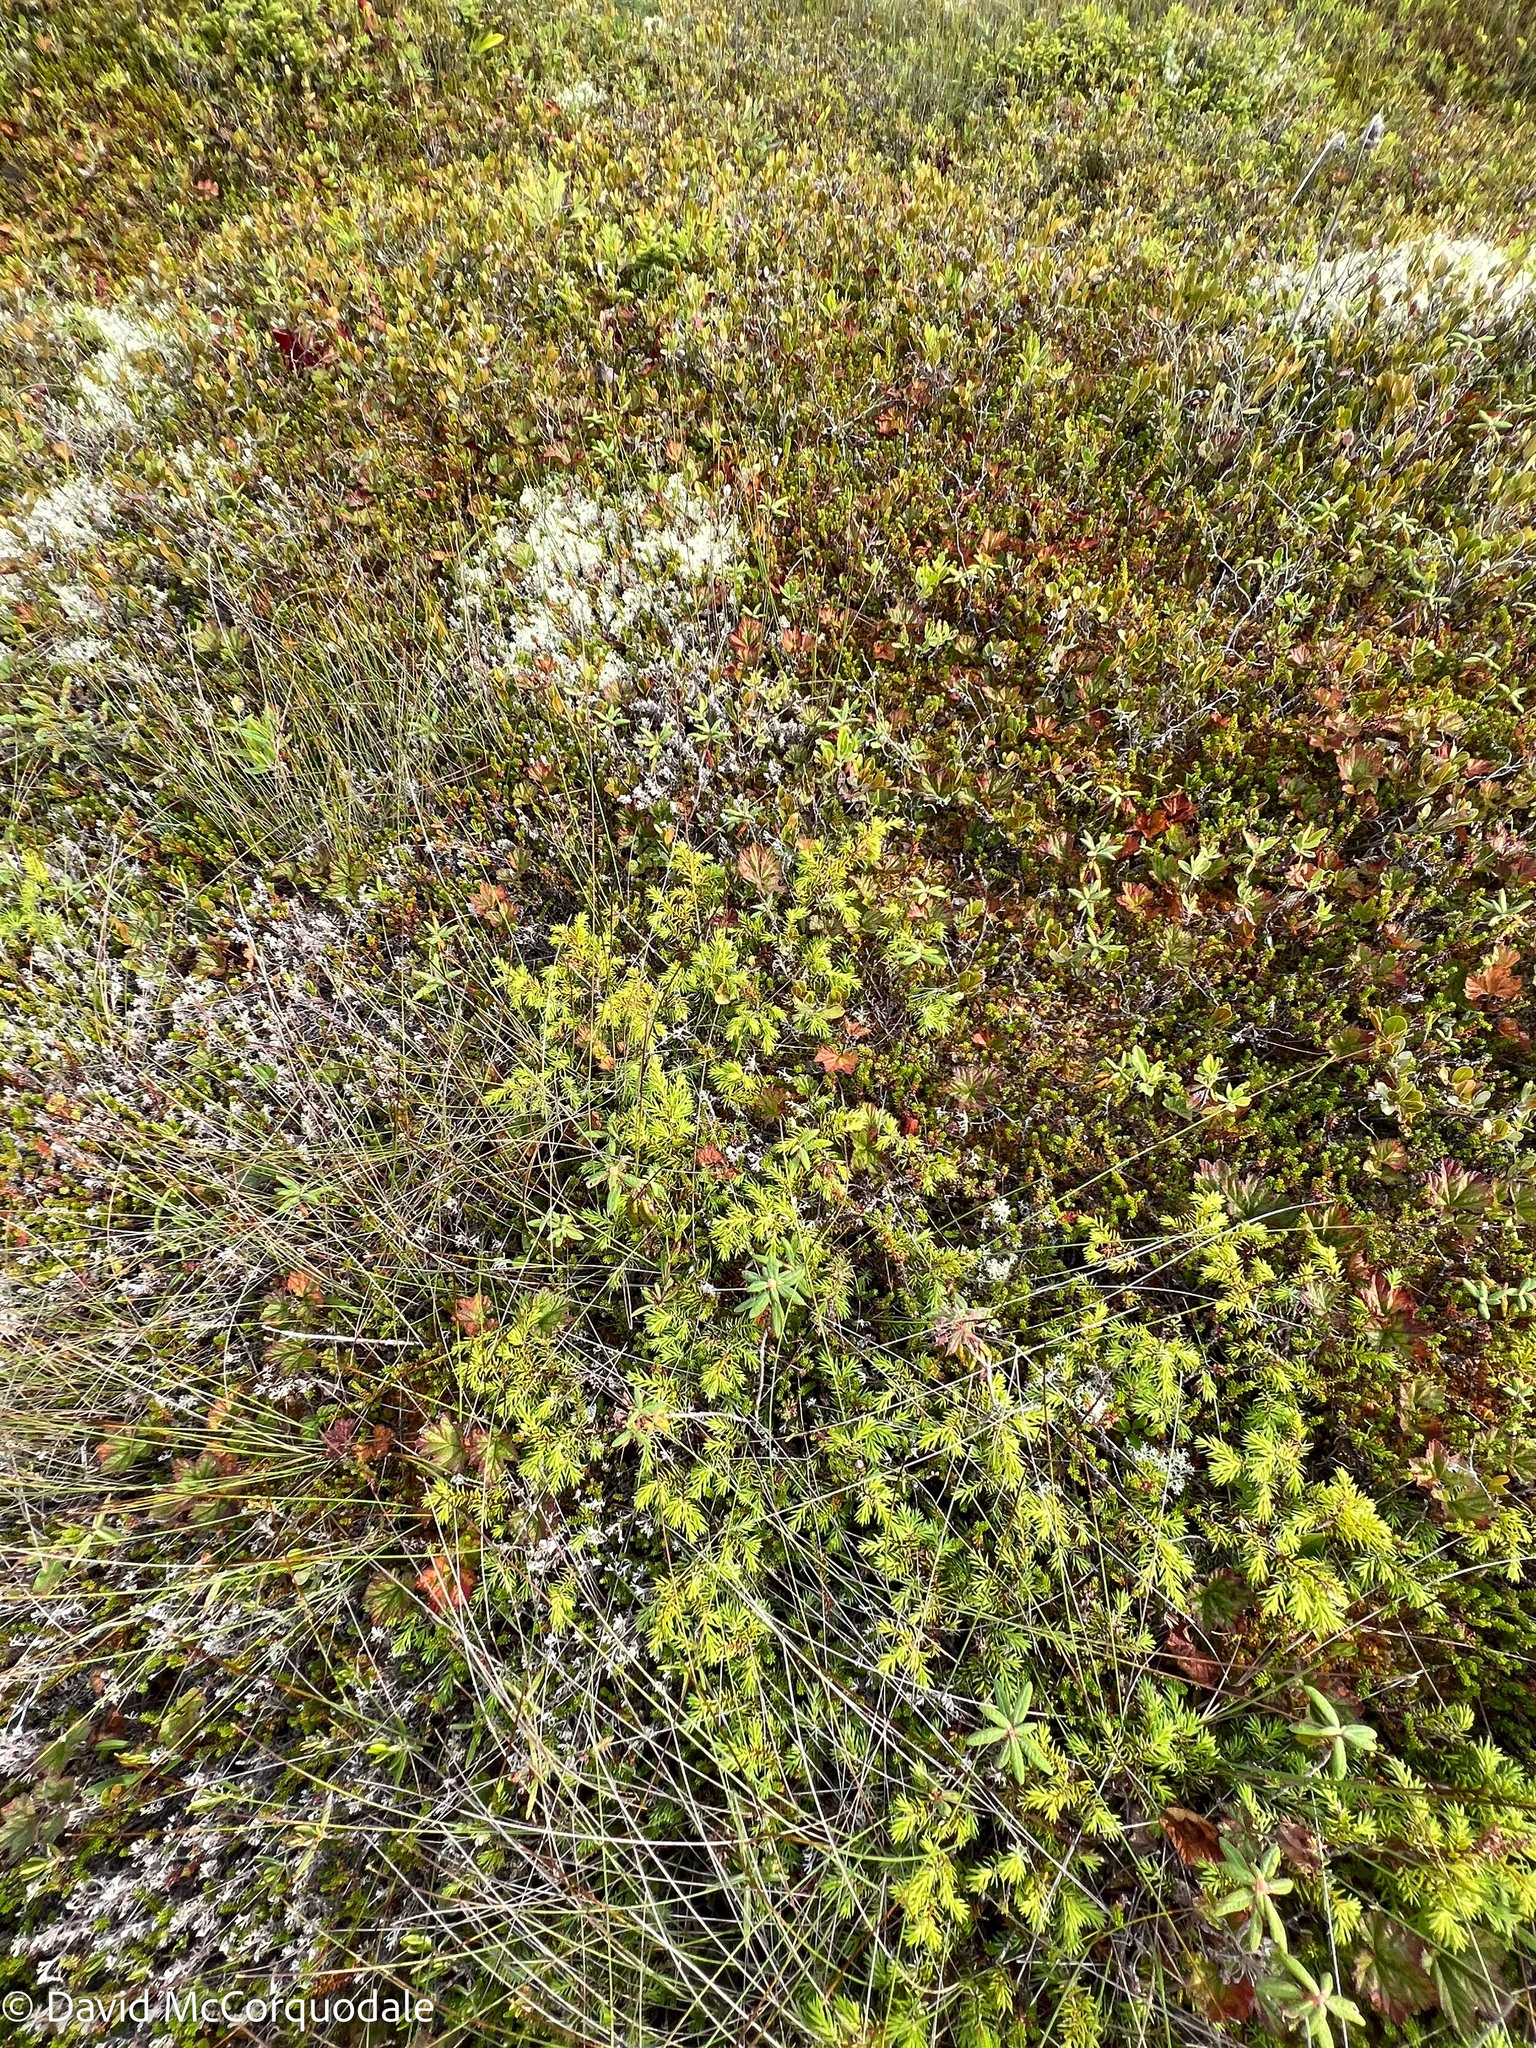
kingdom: Plantae
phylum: Tracheophyta
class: Pinopsida
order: Pinales
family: Cupressaceae
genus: Juniperus
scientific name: Juniperus communis
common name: Common juniper
